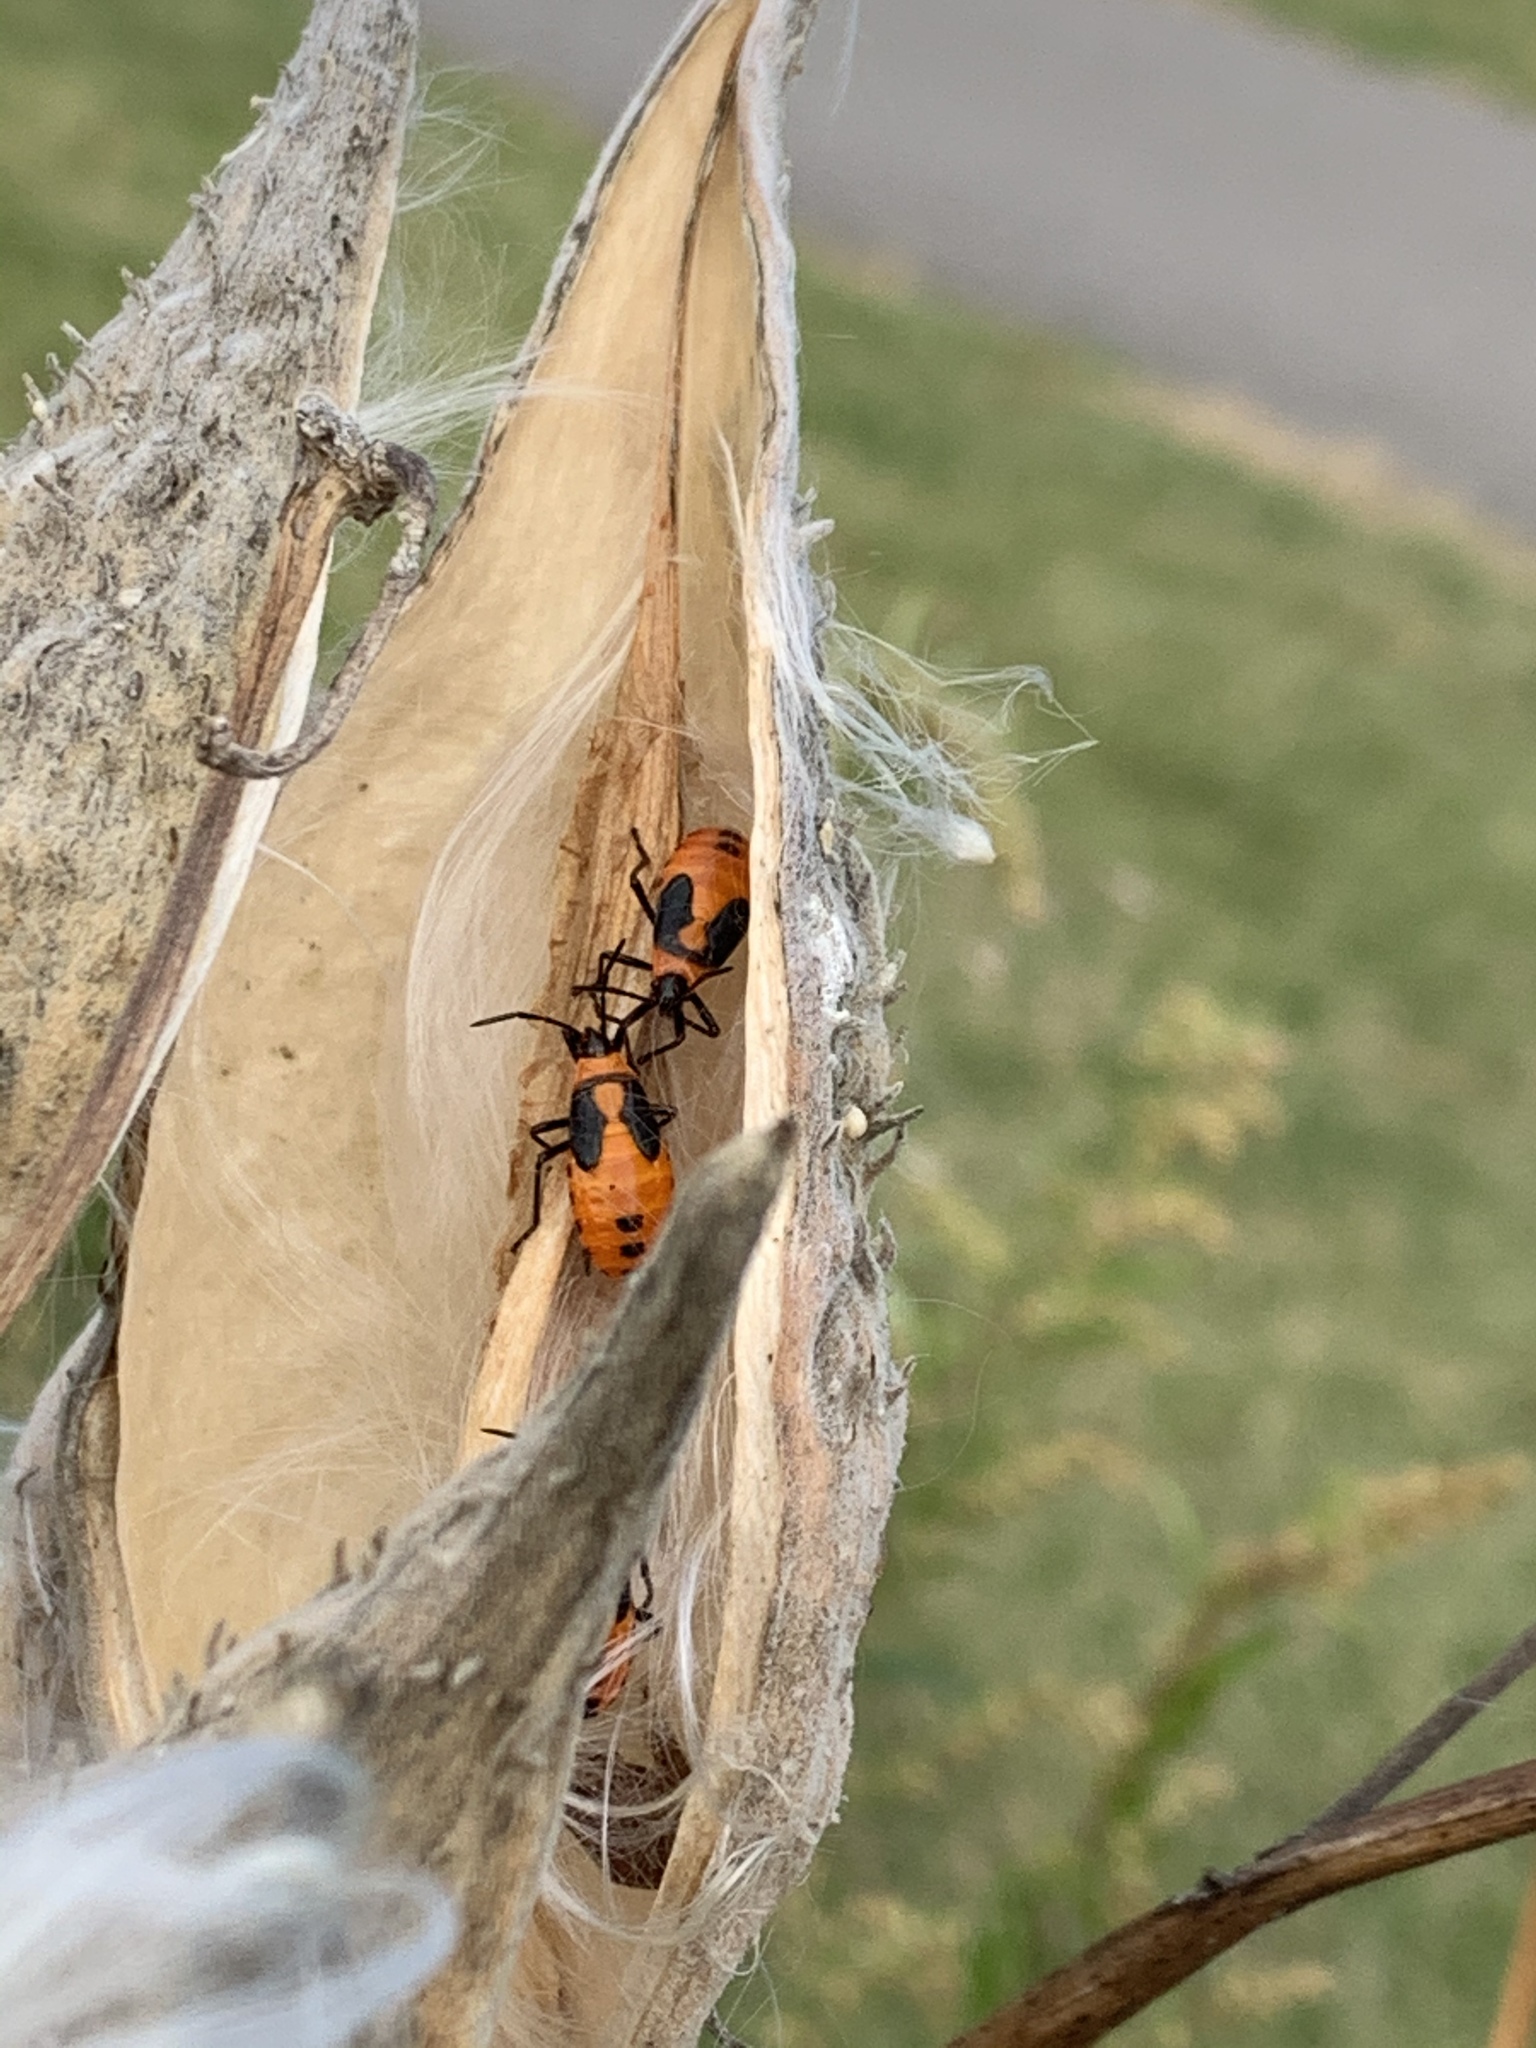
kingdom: Animalia
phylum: Arthropoda
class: Insecta
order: Hemiptera
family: Lygaeidae
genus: Oncopeltus
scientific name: Oncopeltus fasciatus
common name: Large milkweed bug
